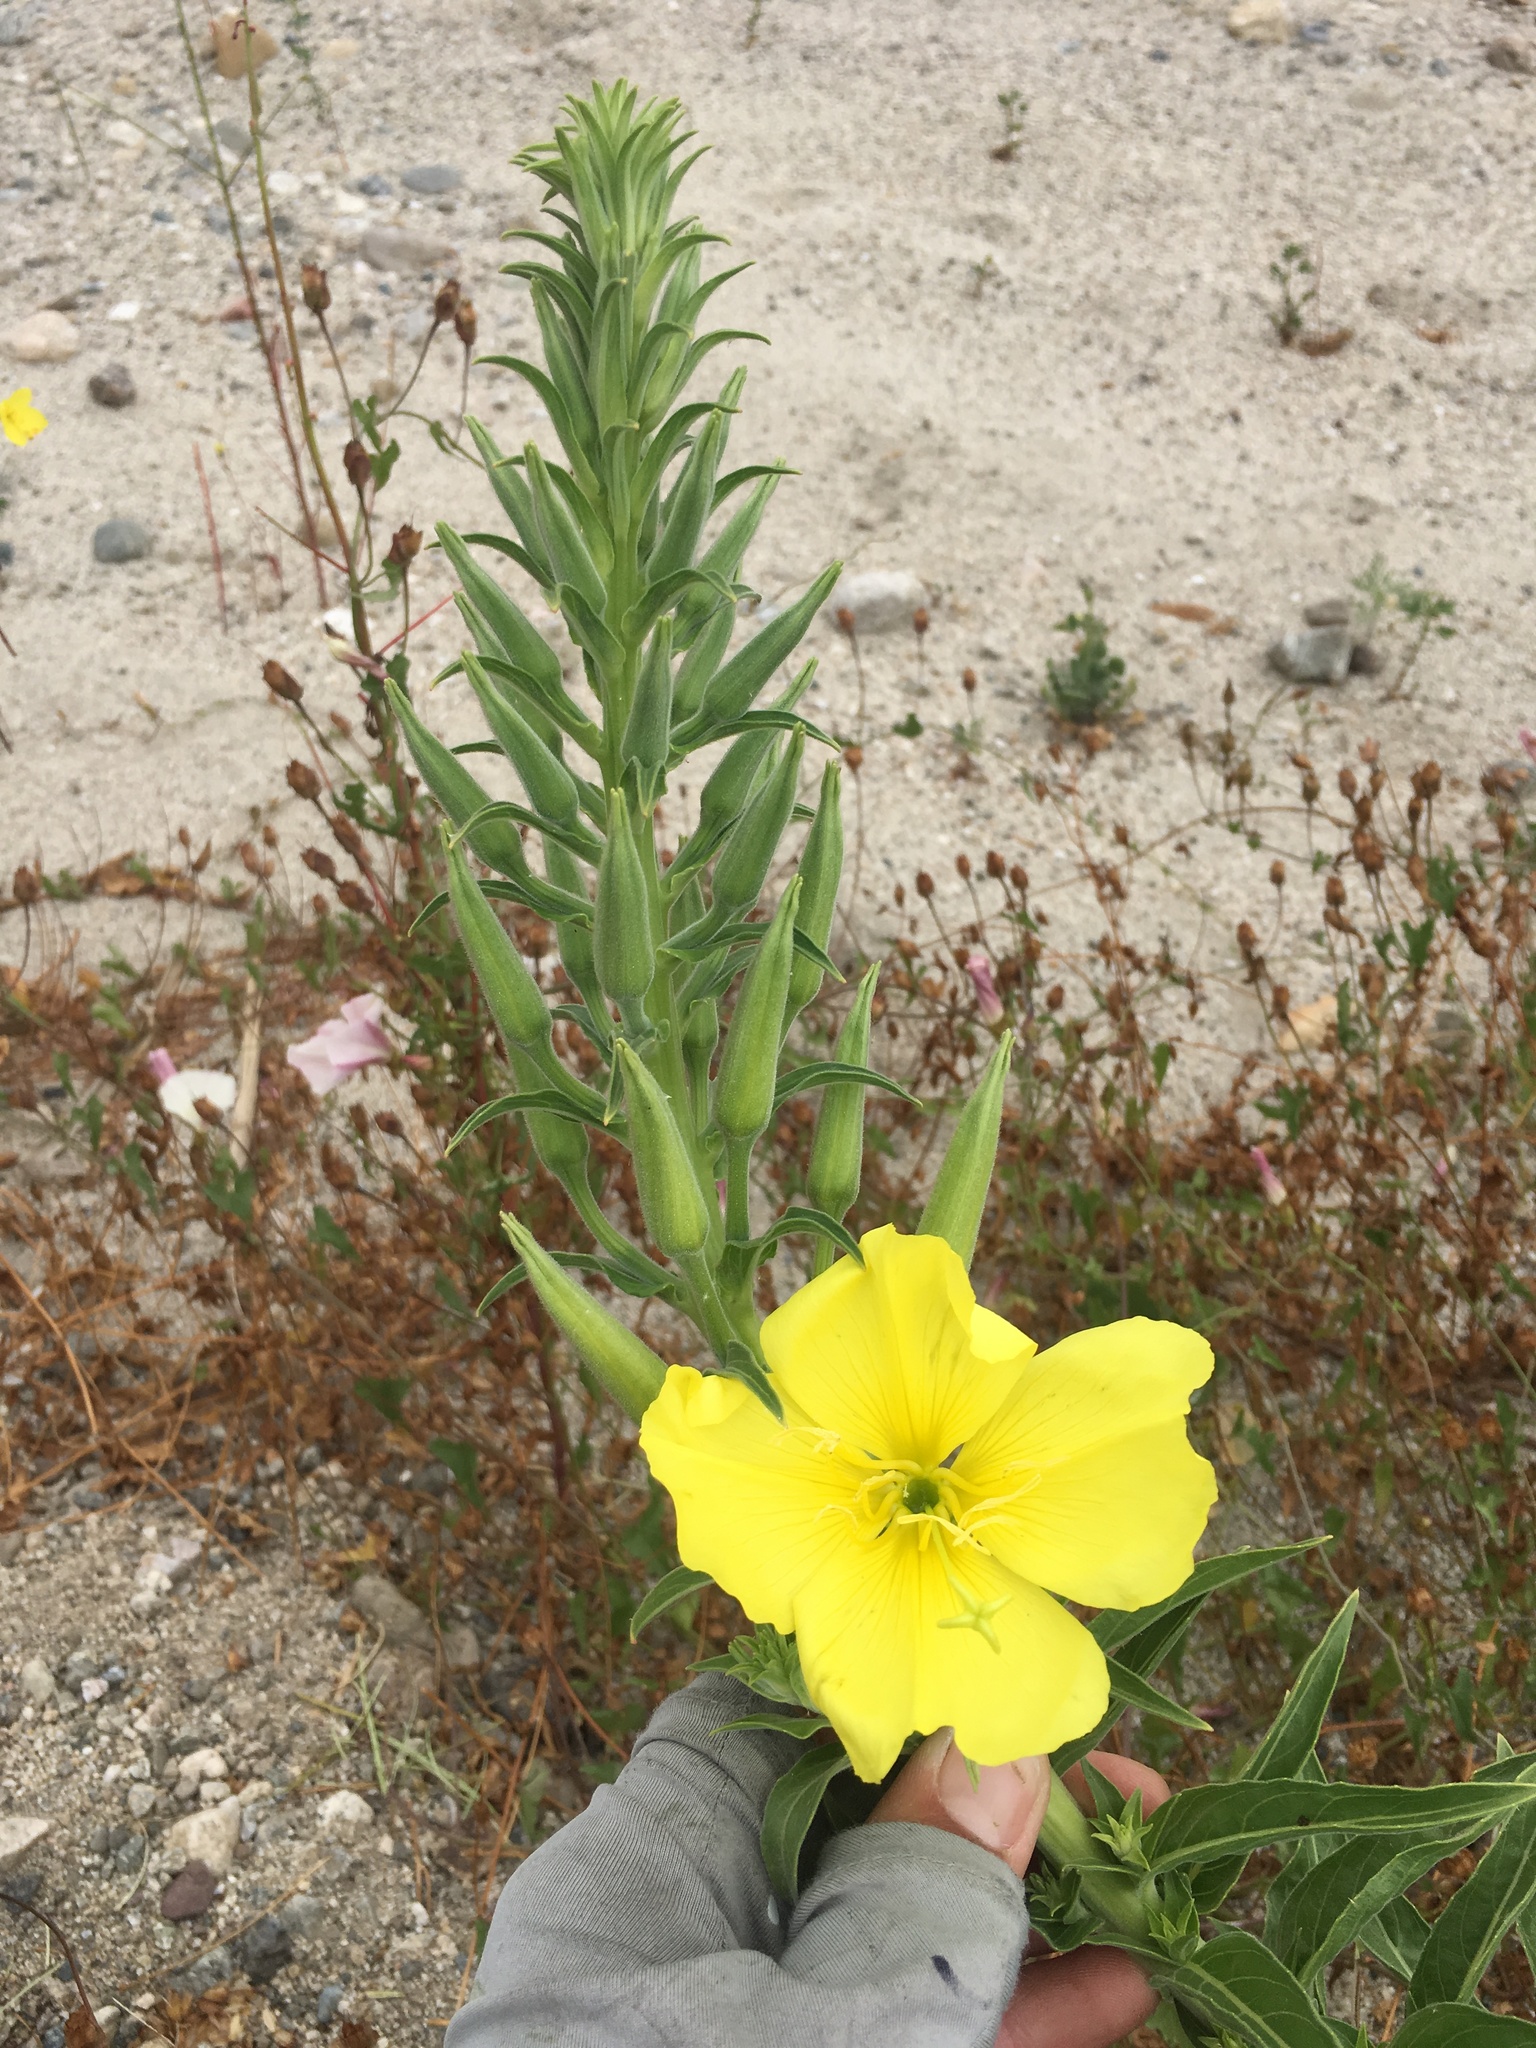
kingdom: Plantae
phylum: Tracheophyta
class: Magnoliopsida
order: Myrtales
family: Onagraceae
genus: Oenothera
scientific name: Oenothera elata
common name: Hooker's evening-primrose
